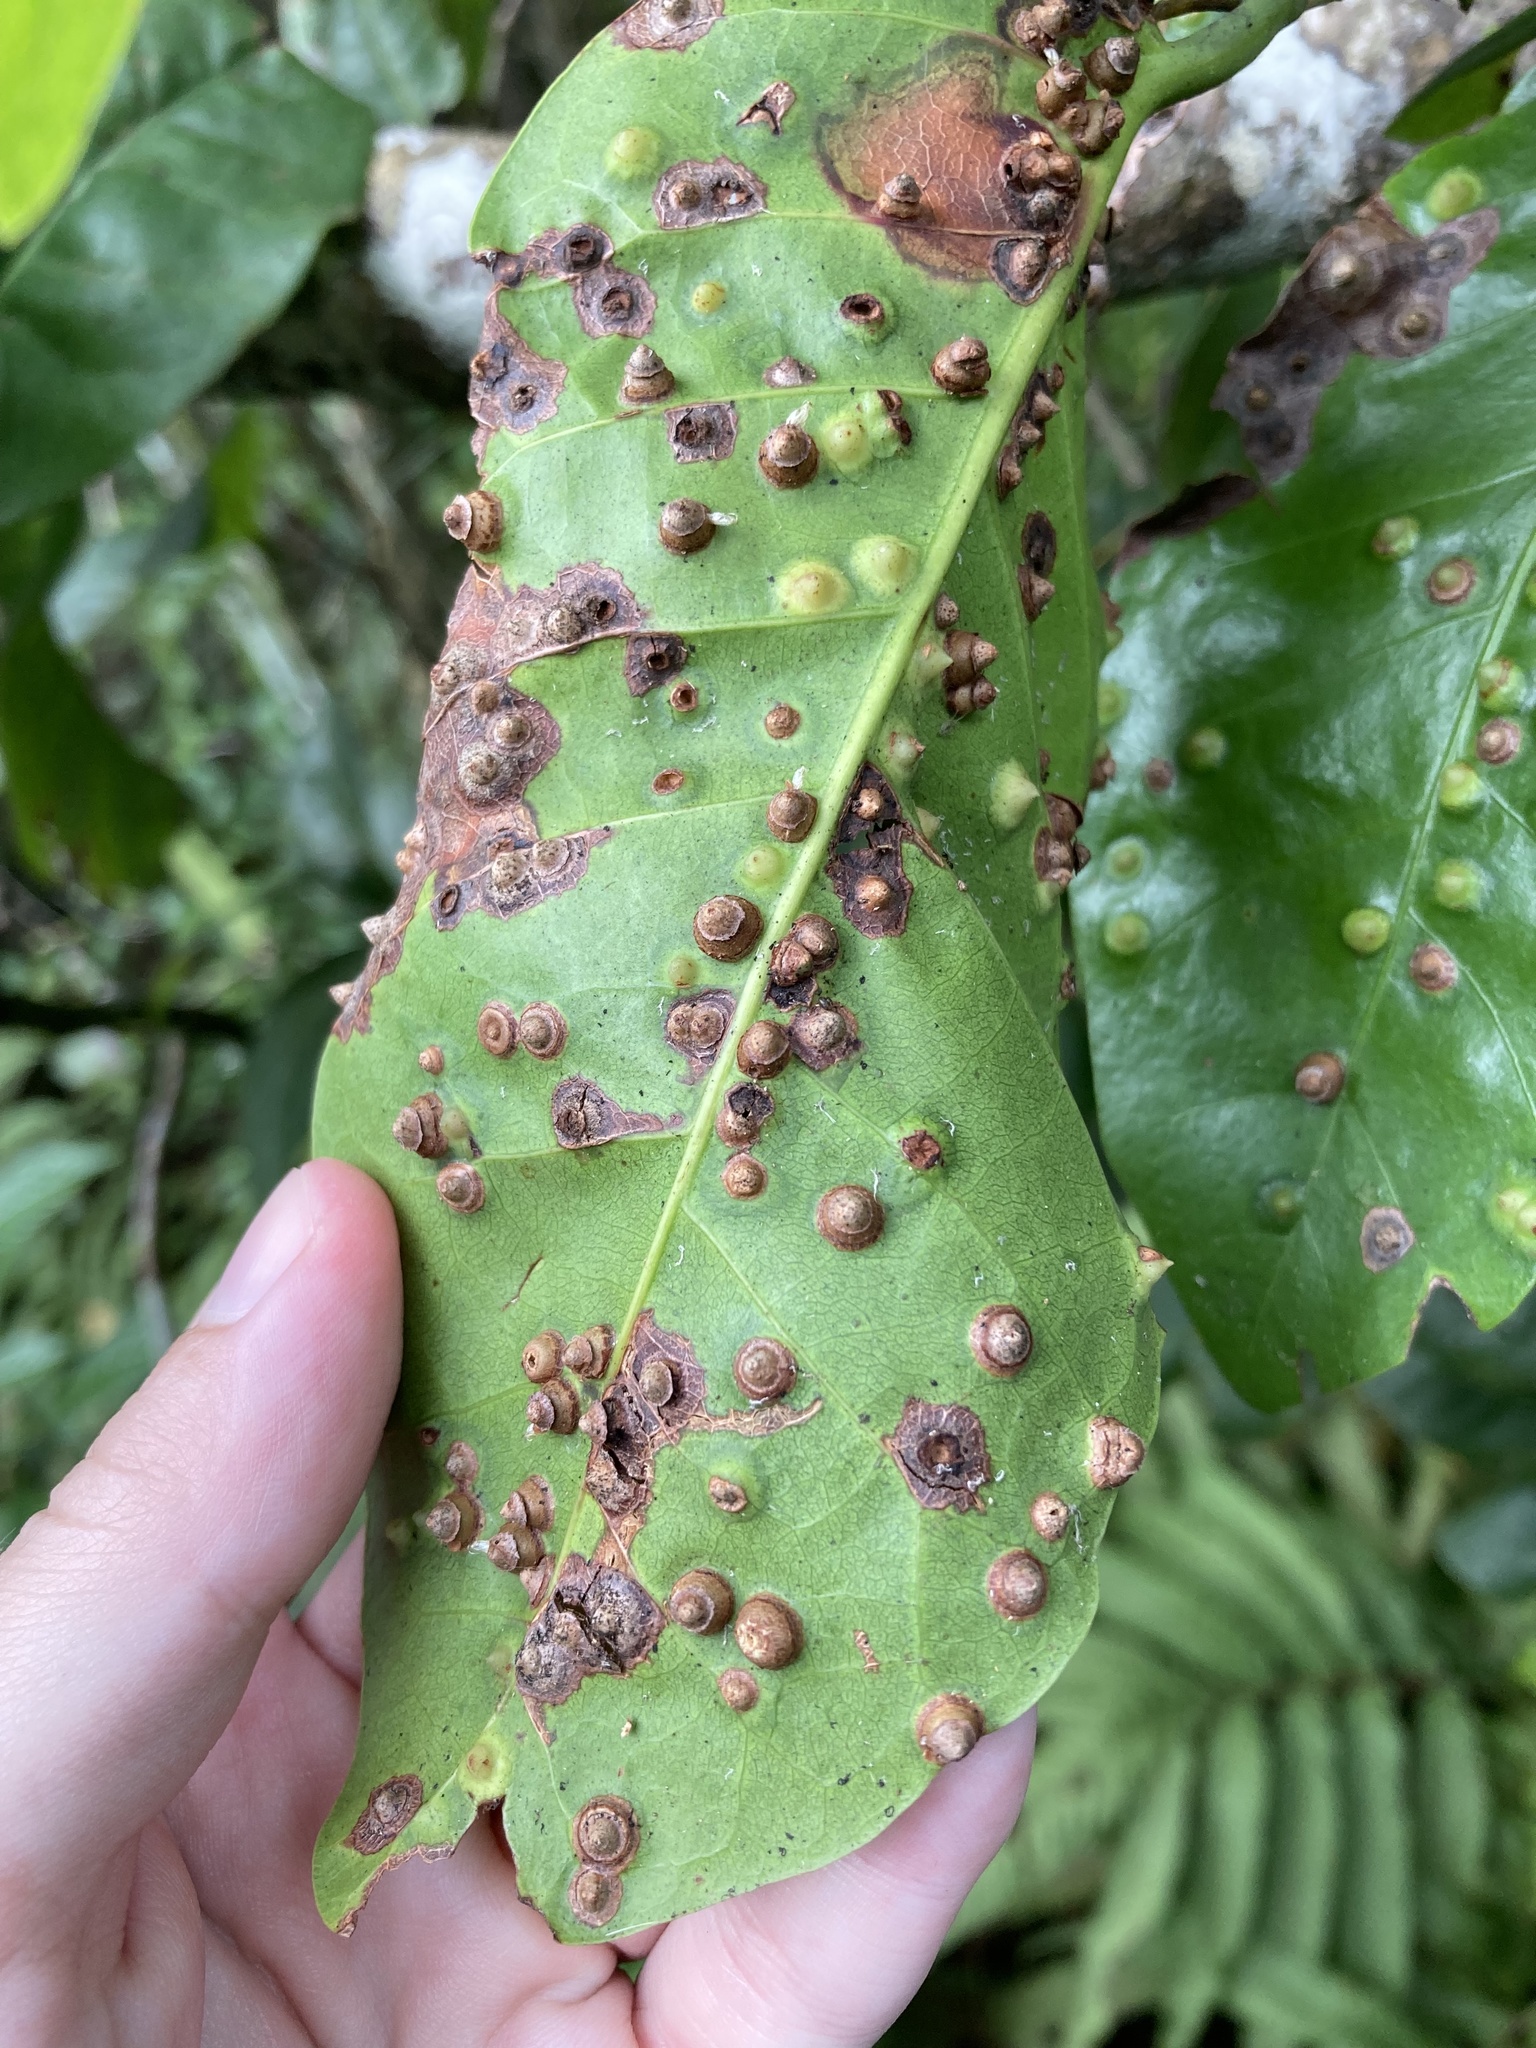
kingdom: Animalia
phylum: Arthropoda
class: Insecta
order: Diptera
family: Cecidomyiidae
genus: Ctenodactylomyia
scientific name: Ctenodactylomyia watsoni
